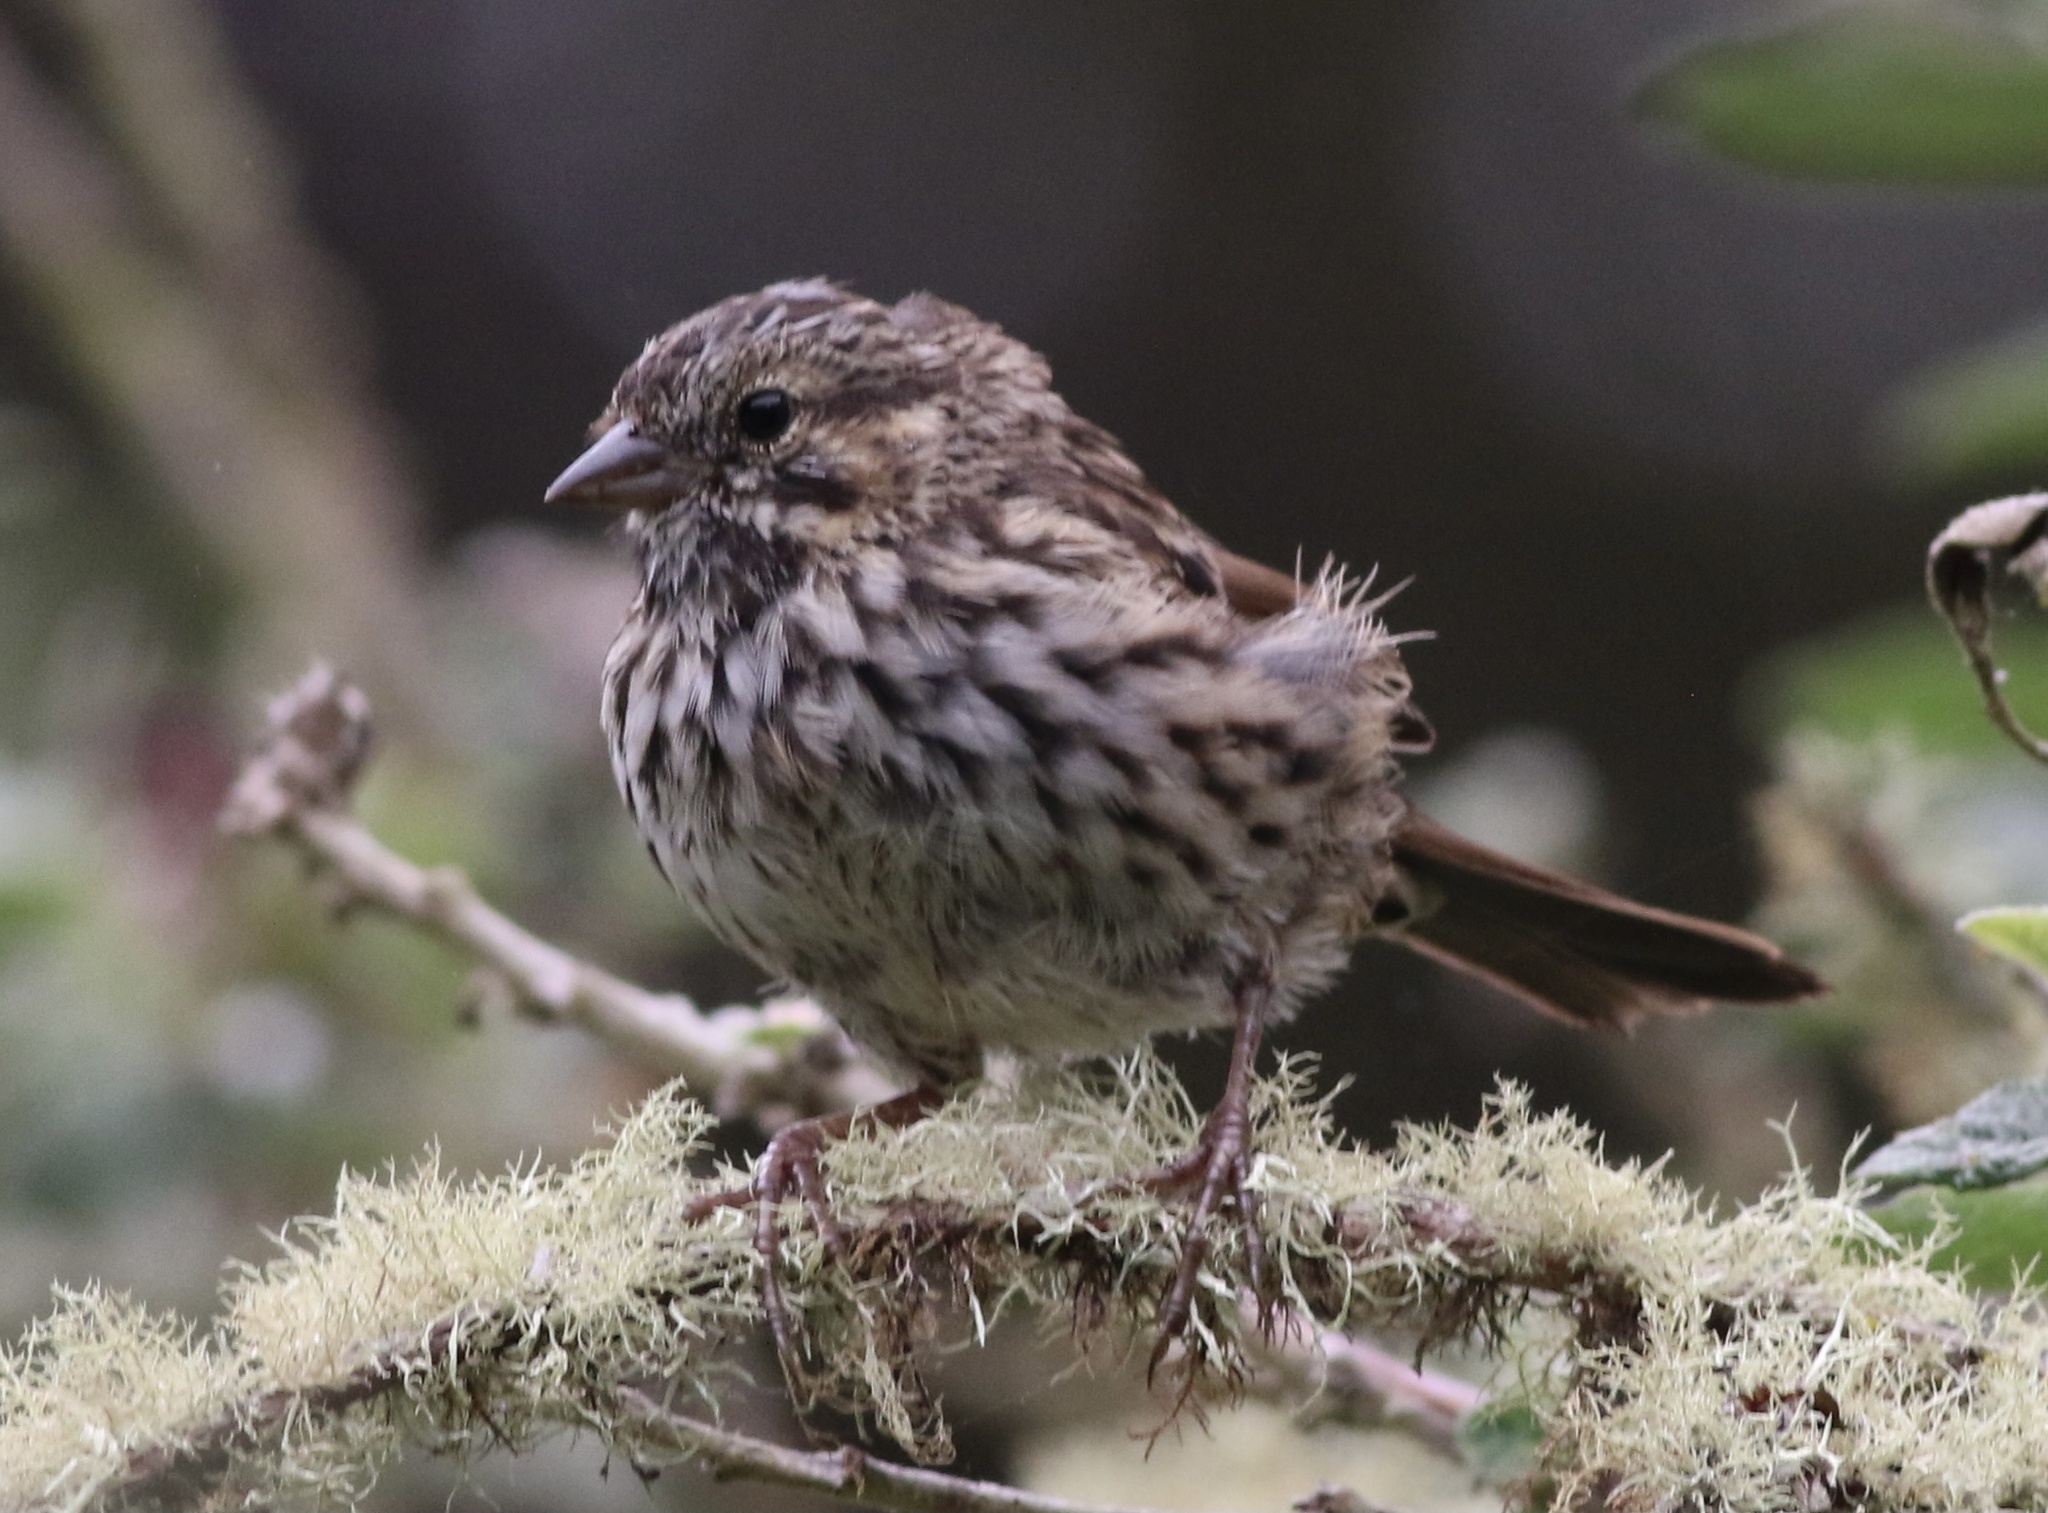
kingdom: Animalia
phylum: Chordata
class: Aves
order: Passeriformes
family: Passerellidae
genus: Melospiza
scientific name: Melospiza melodia
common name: Song sparrow
